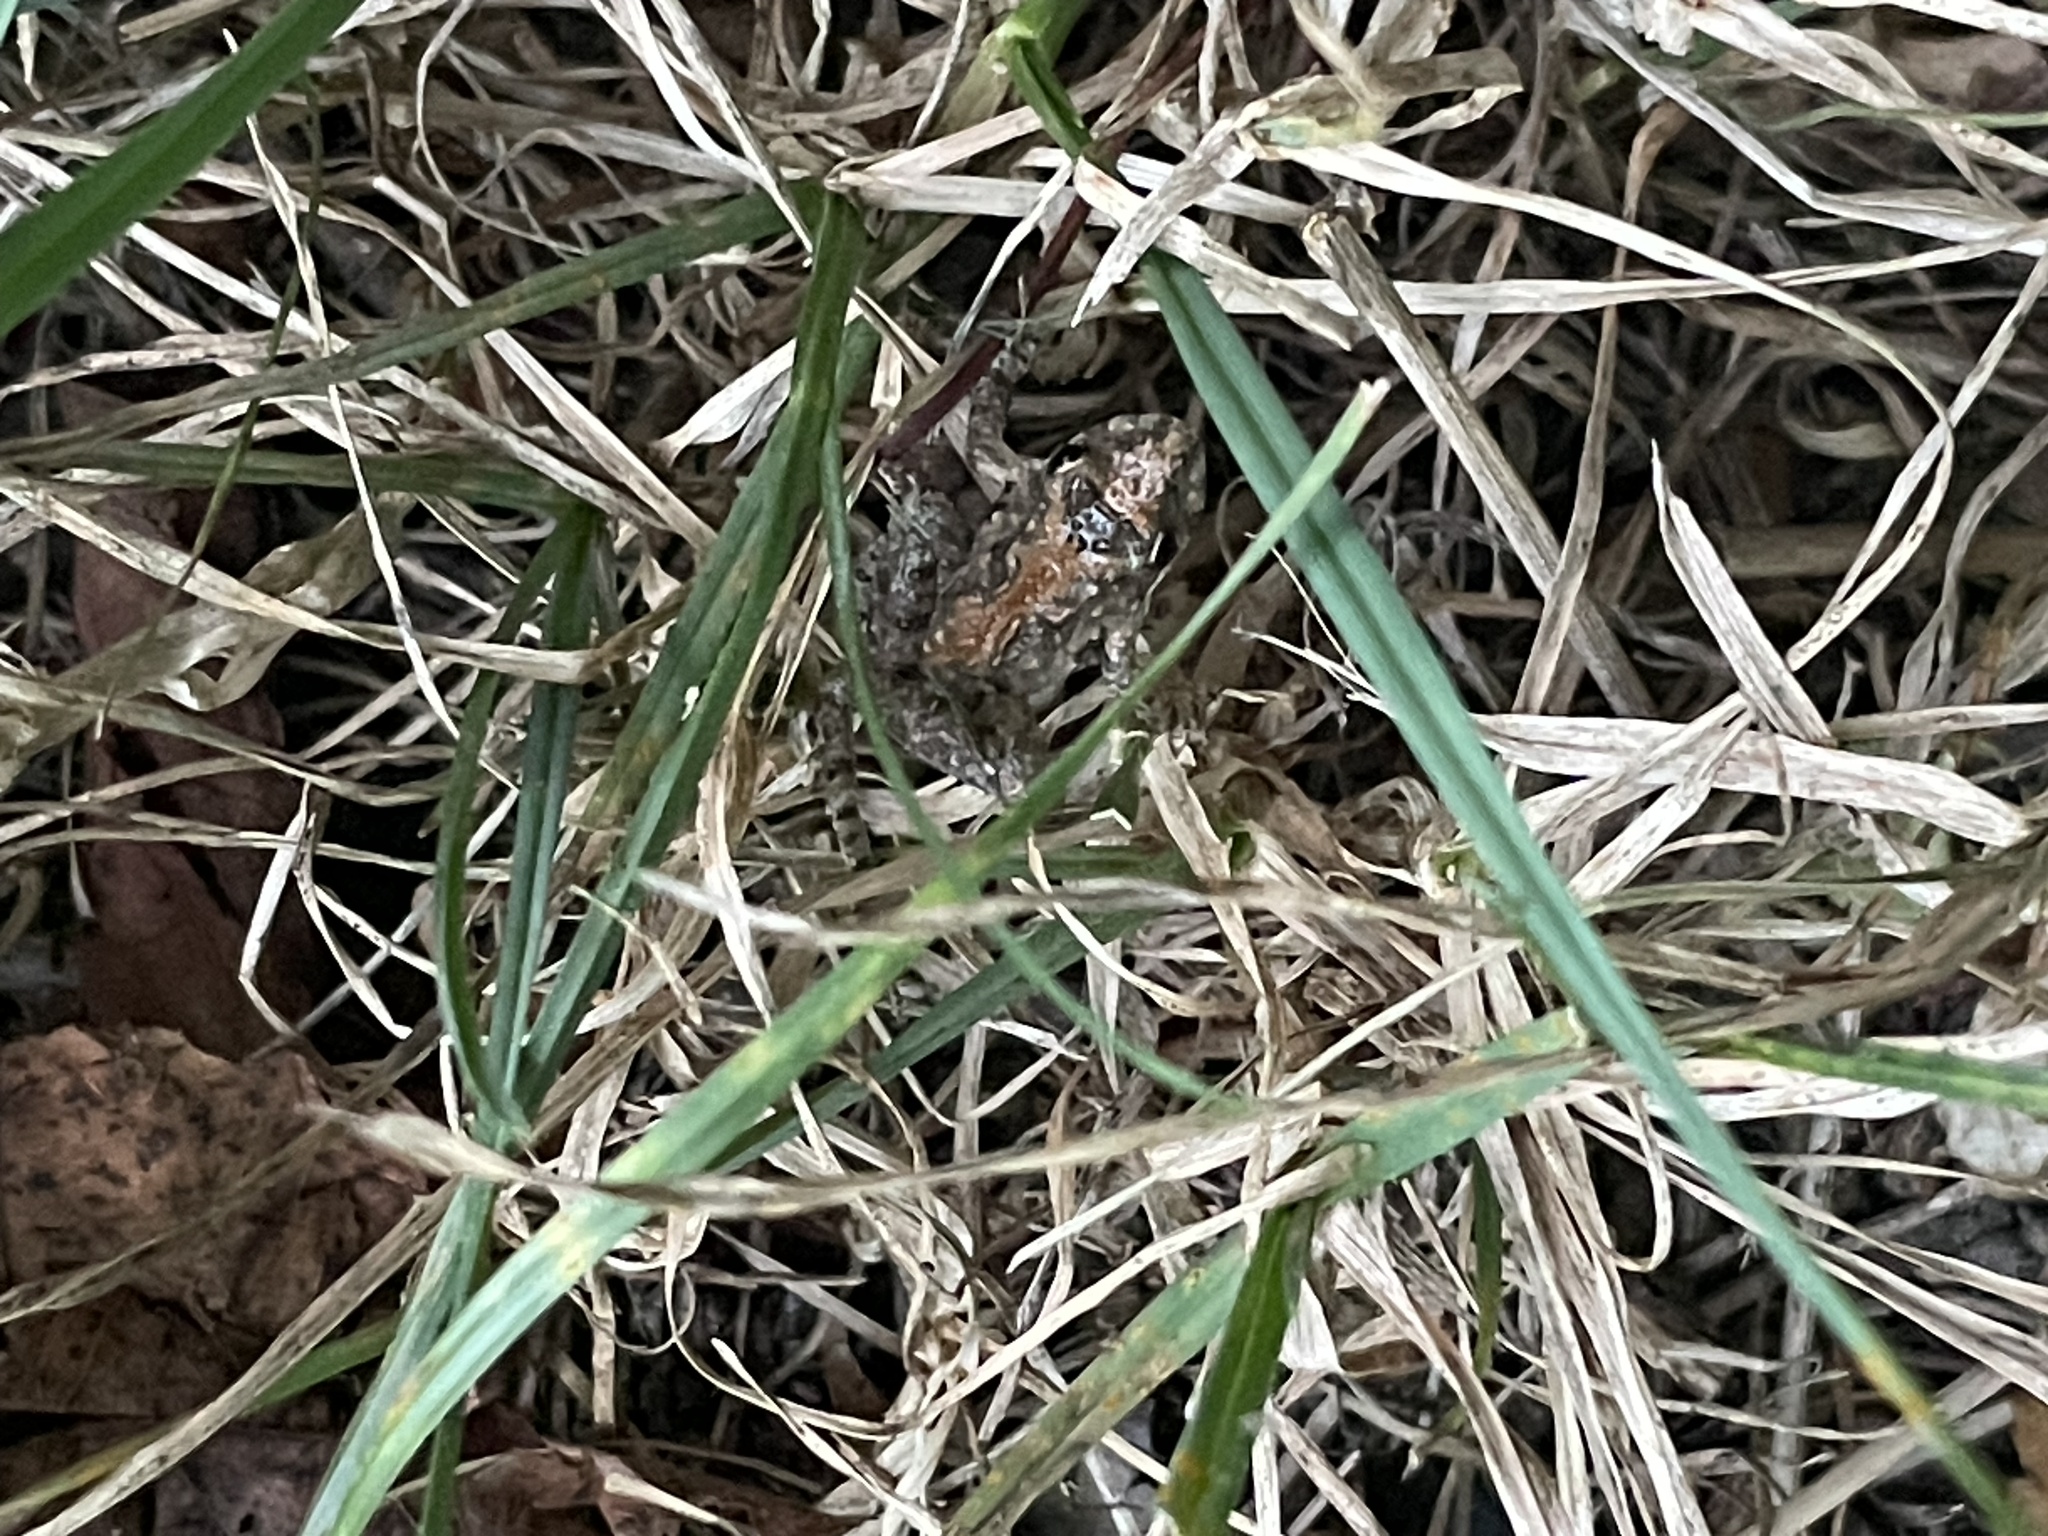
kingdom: Animalia
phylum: Chordata
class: Amphibia
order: Anura
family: Hylidae
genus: Acris
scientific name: Acris crepitans
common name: Northern cricket frog
